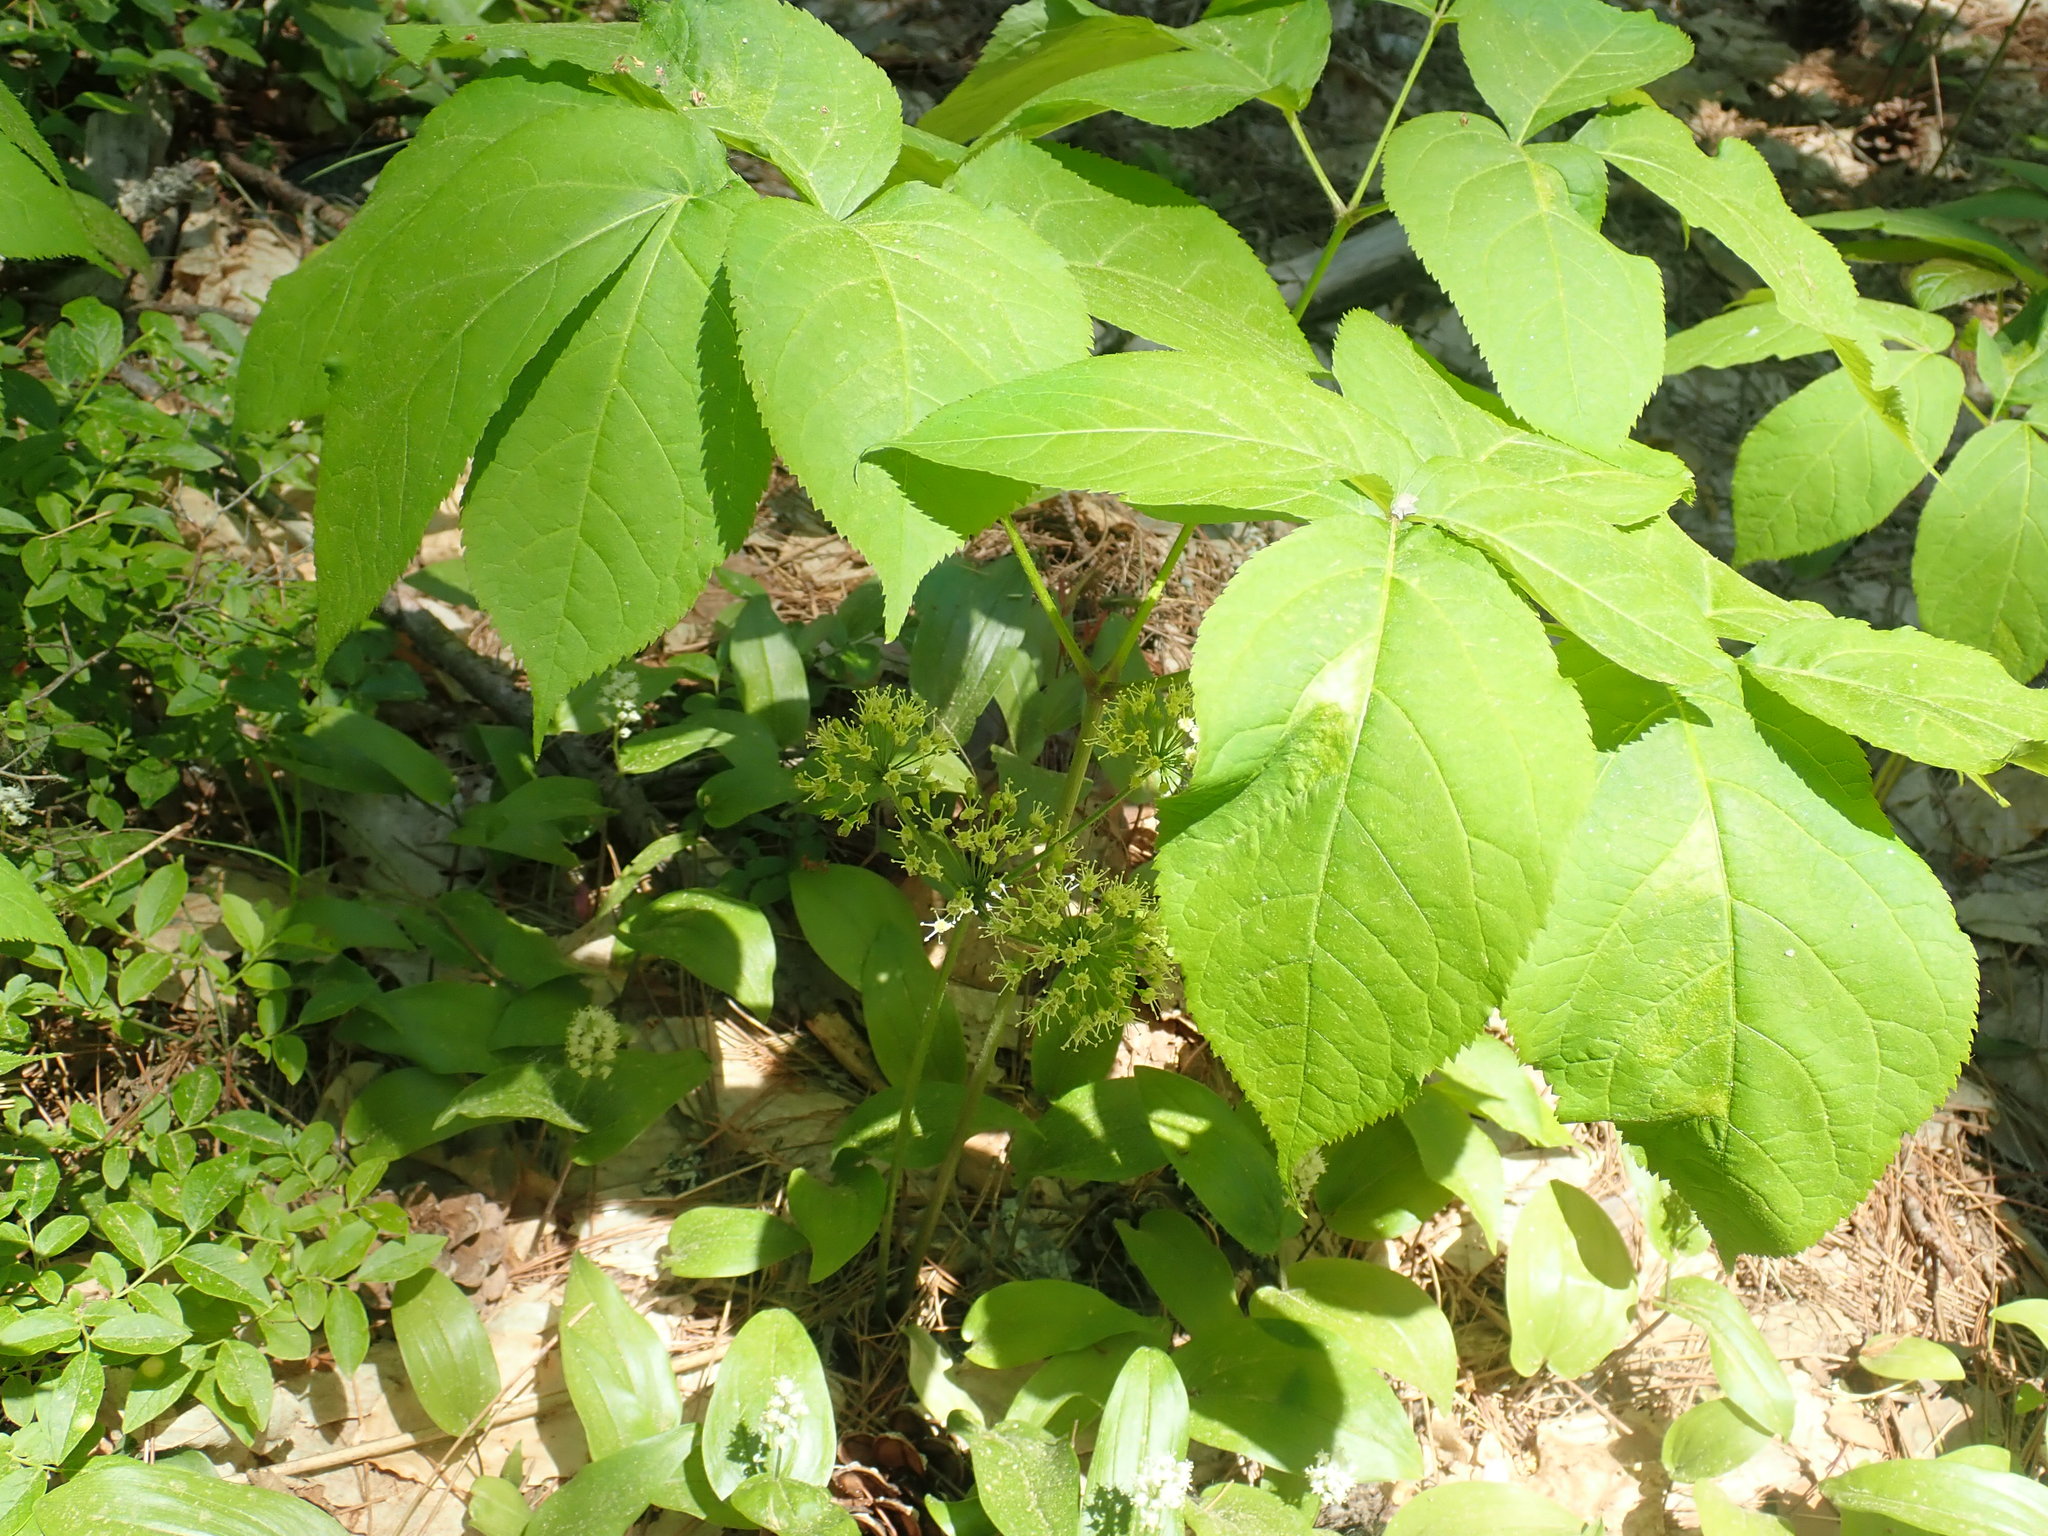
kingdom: Plantae
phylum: Tracheophyta
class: Magnoliopsida
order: Apiales
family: Araliaceae
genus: Aralia
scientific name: Aralia nudicaulis
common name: Wild sarsaparilla
